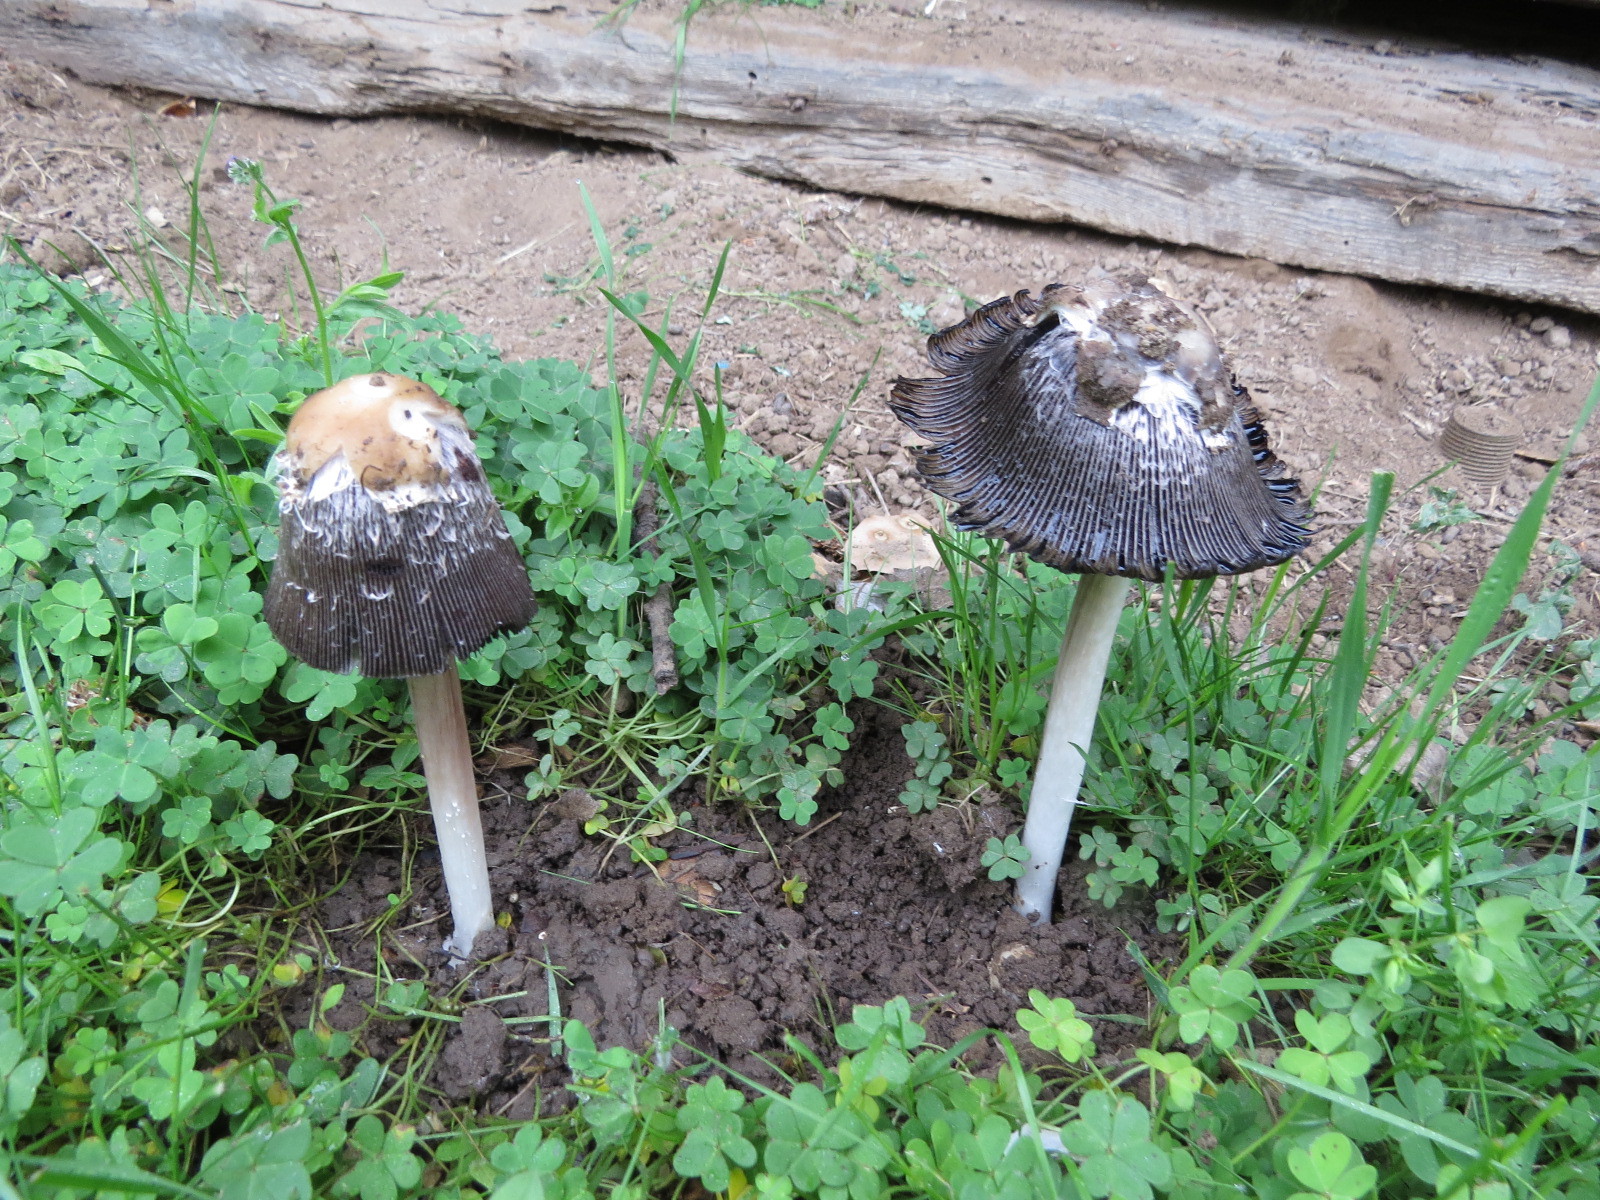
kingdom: Fungi
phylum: Basidiomycota
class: Agaricomycetes
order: Agaricales
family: Agaricaceae
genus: Coprinus
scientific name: Coprinus comatus
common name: Lawyer's wig
